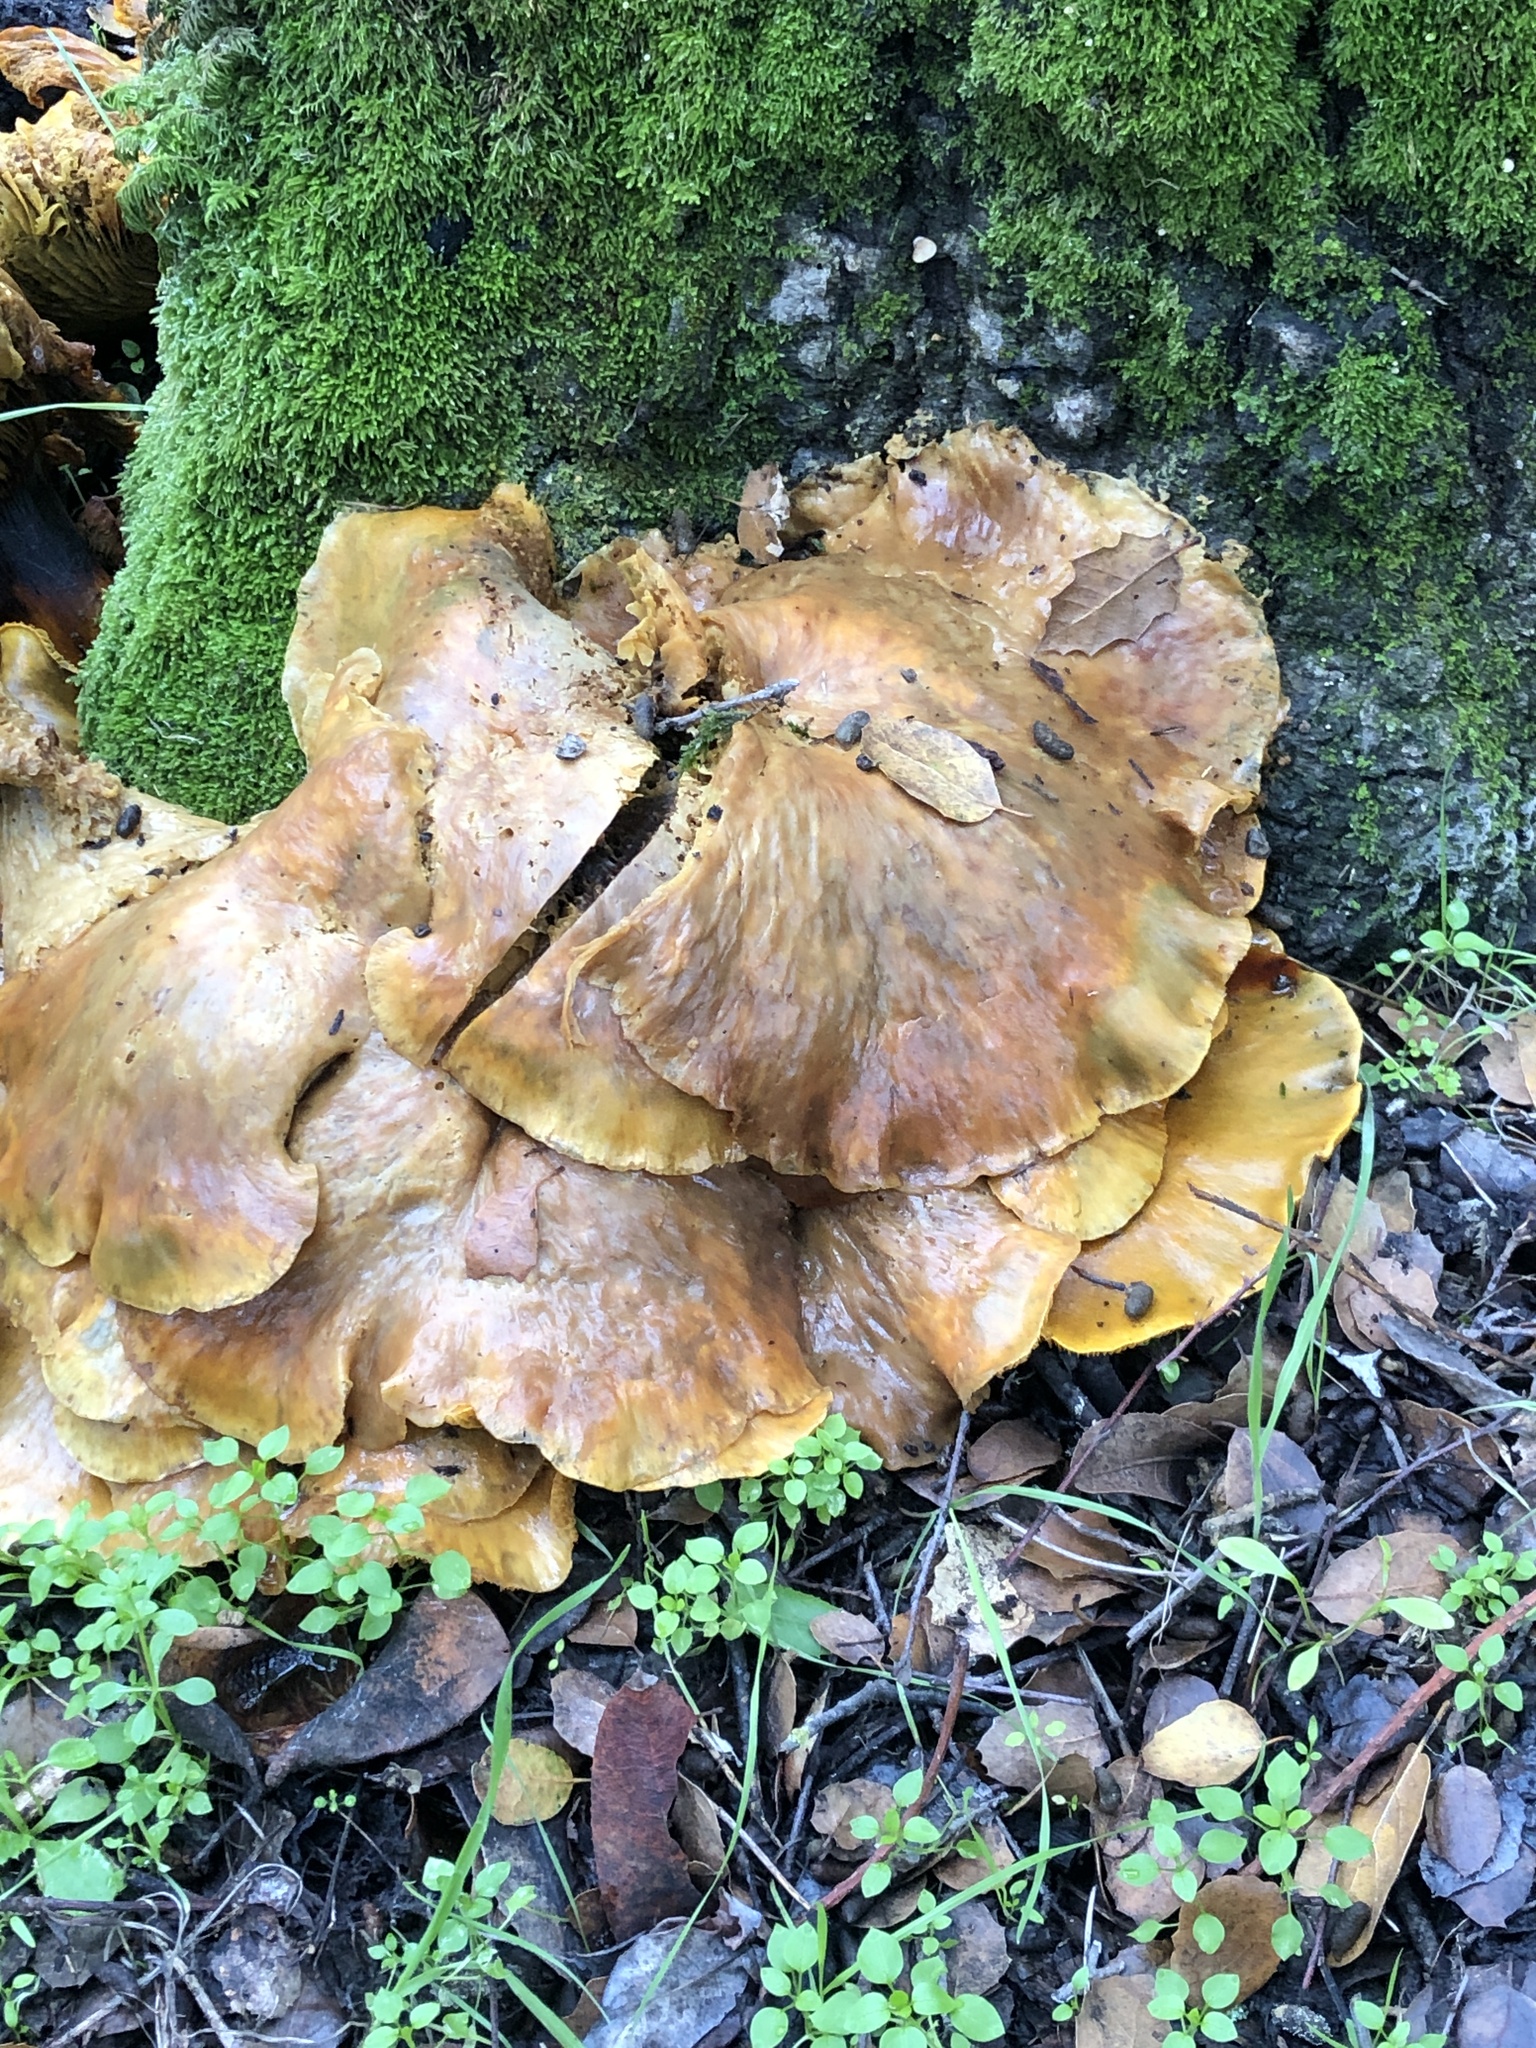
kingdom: Fungi
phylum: Basidiomycota
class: Agaricomycetes
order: Agaricales
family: Omphalotaceae
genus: Omphalotus
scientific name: Omphalotus olivascens
